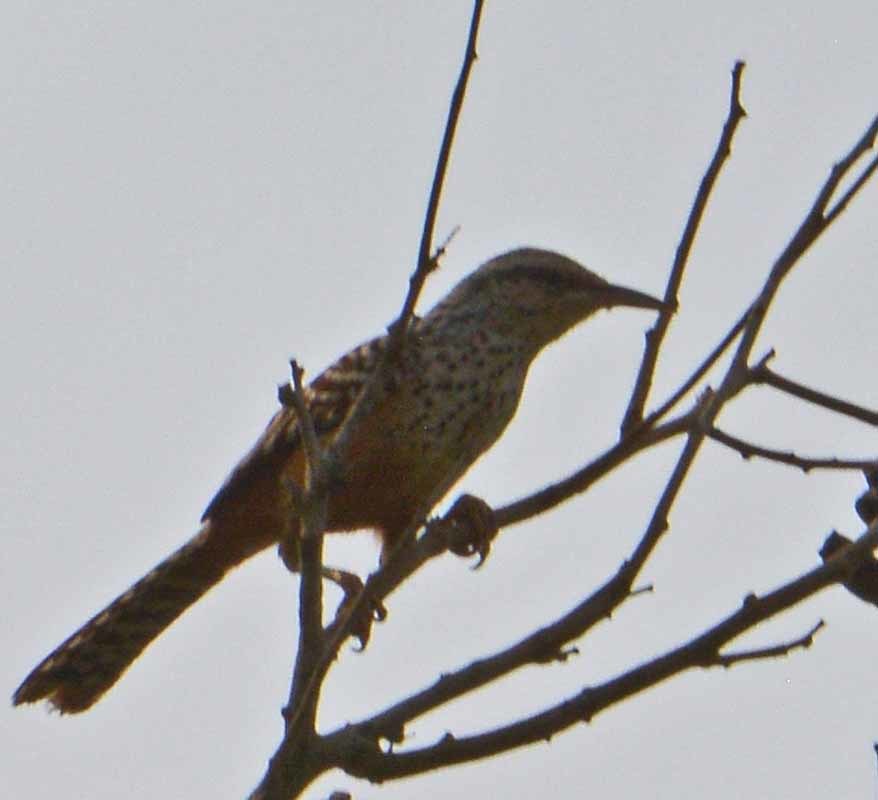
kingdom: Animalia
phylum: Chordata
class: Aves
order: Passeriformes
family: Troglodytidae
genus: Campylorhynchus
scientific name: Campylorhynchus zonatus
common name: Band-backed wren
